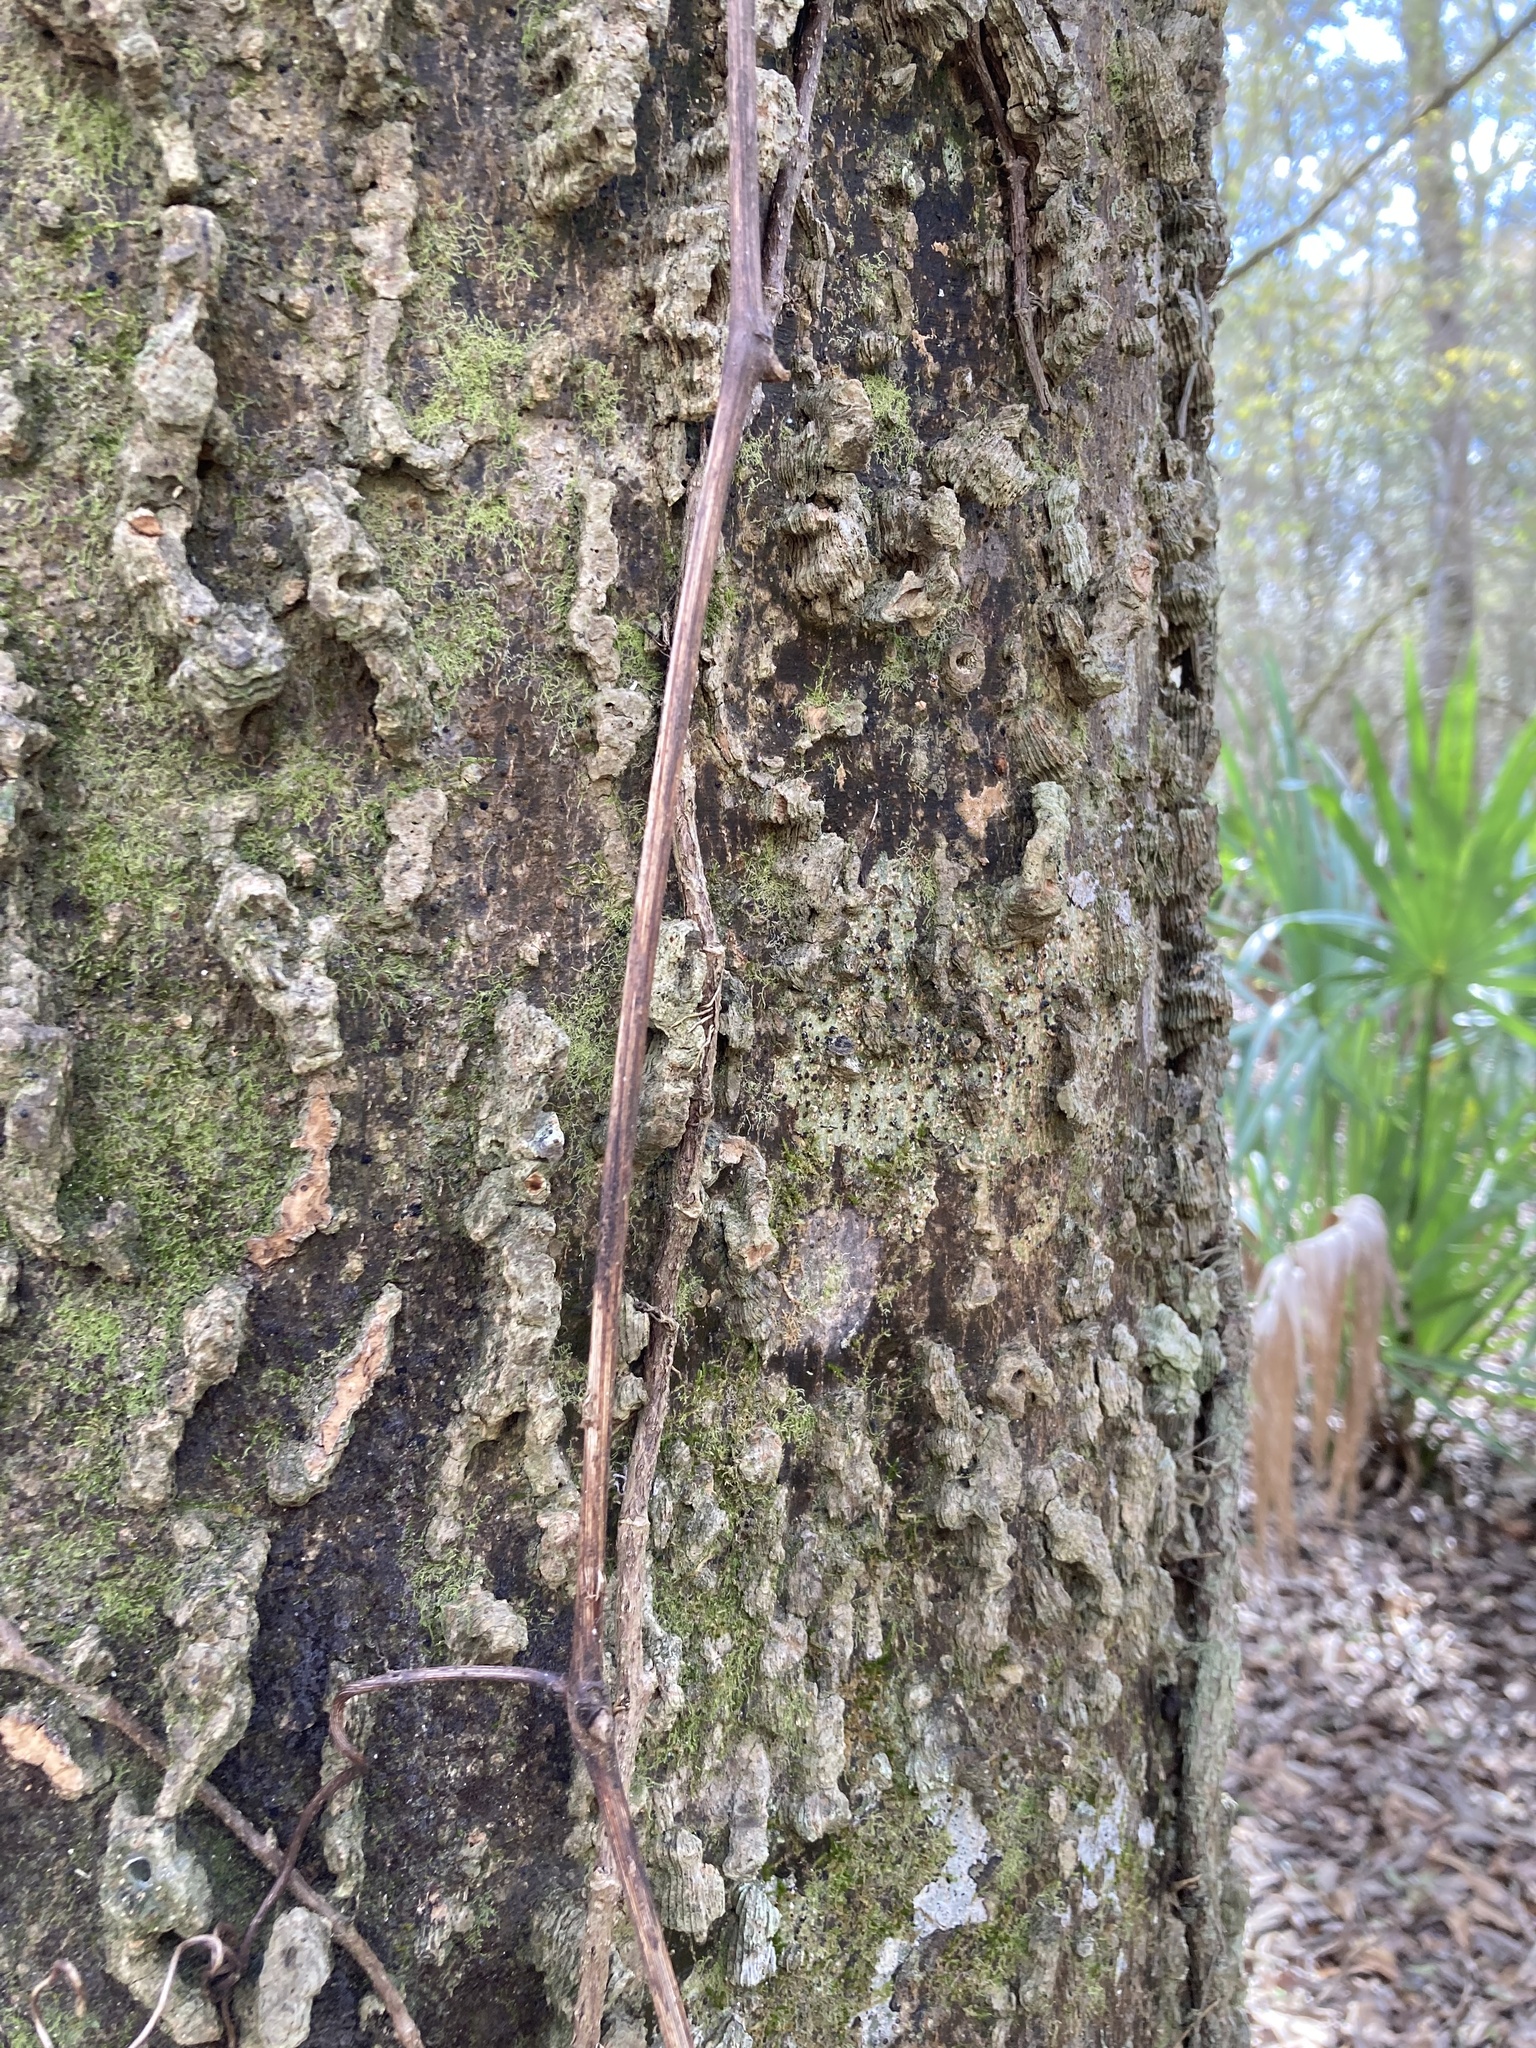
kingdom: Plantae
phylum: Tracheophyta
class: Magnoliopsida
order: Rosales
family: Cannabaceae
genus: Celtis
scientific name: Celtis laevigata
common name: Sugarberry
